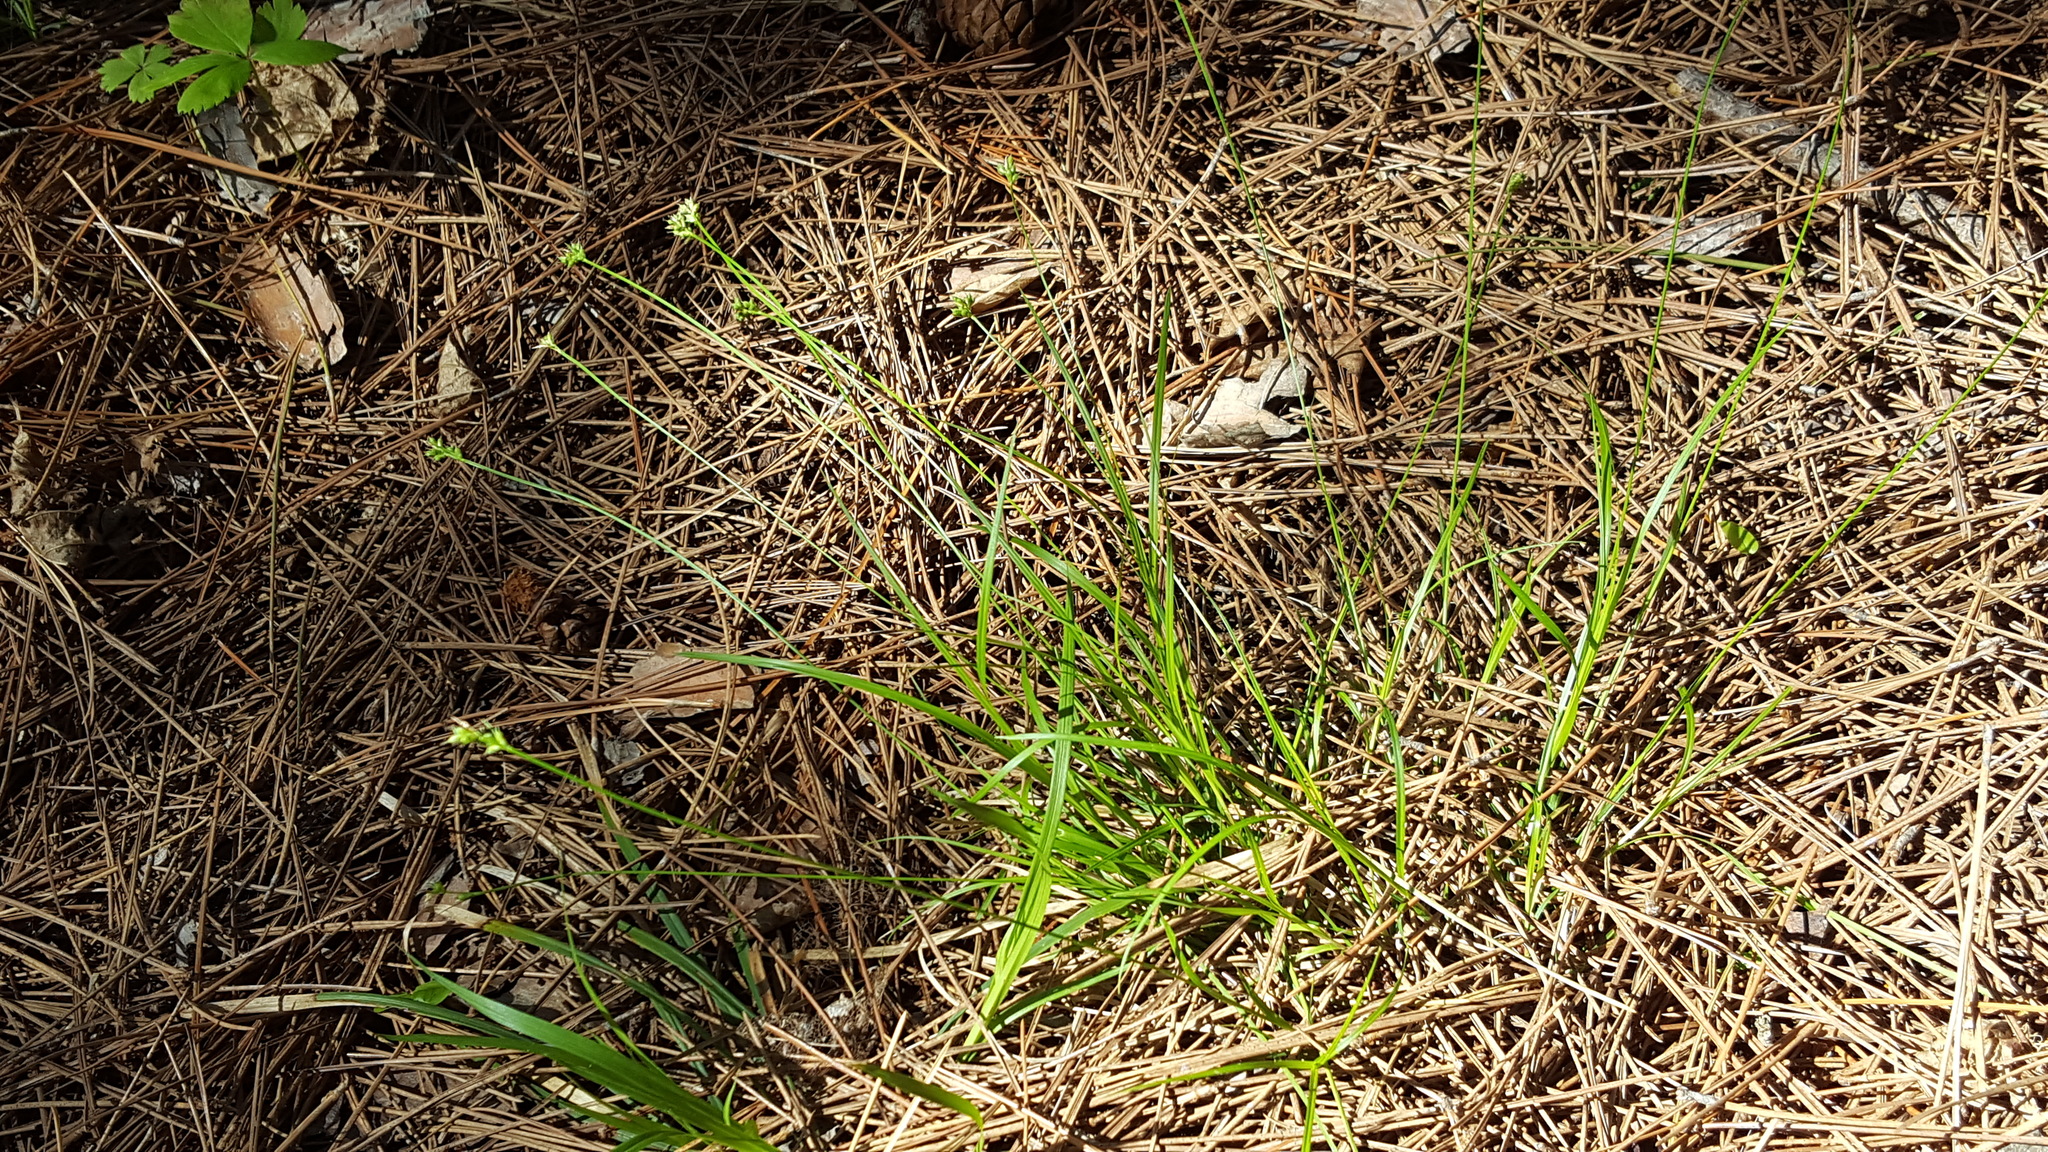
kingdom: Plantae
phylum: Tracheophyta
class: Liliopsida
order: Poales
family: Cyperaceae
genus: Carex
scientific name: Carex peckii
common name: Peck's oak sedge
